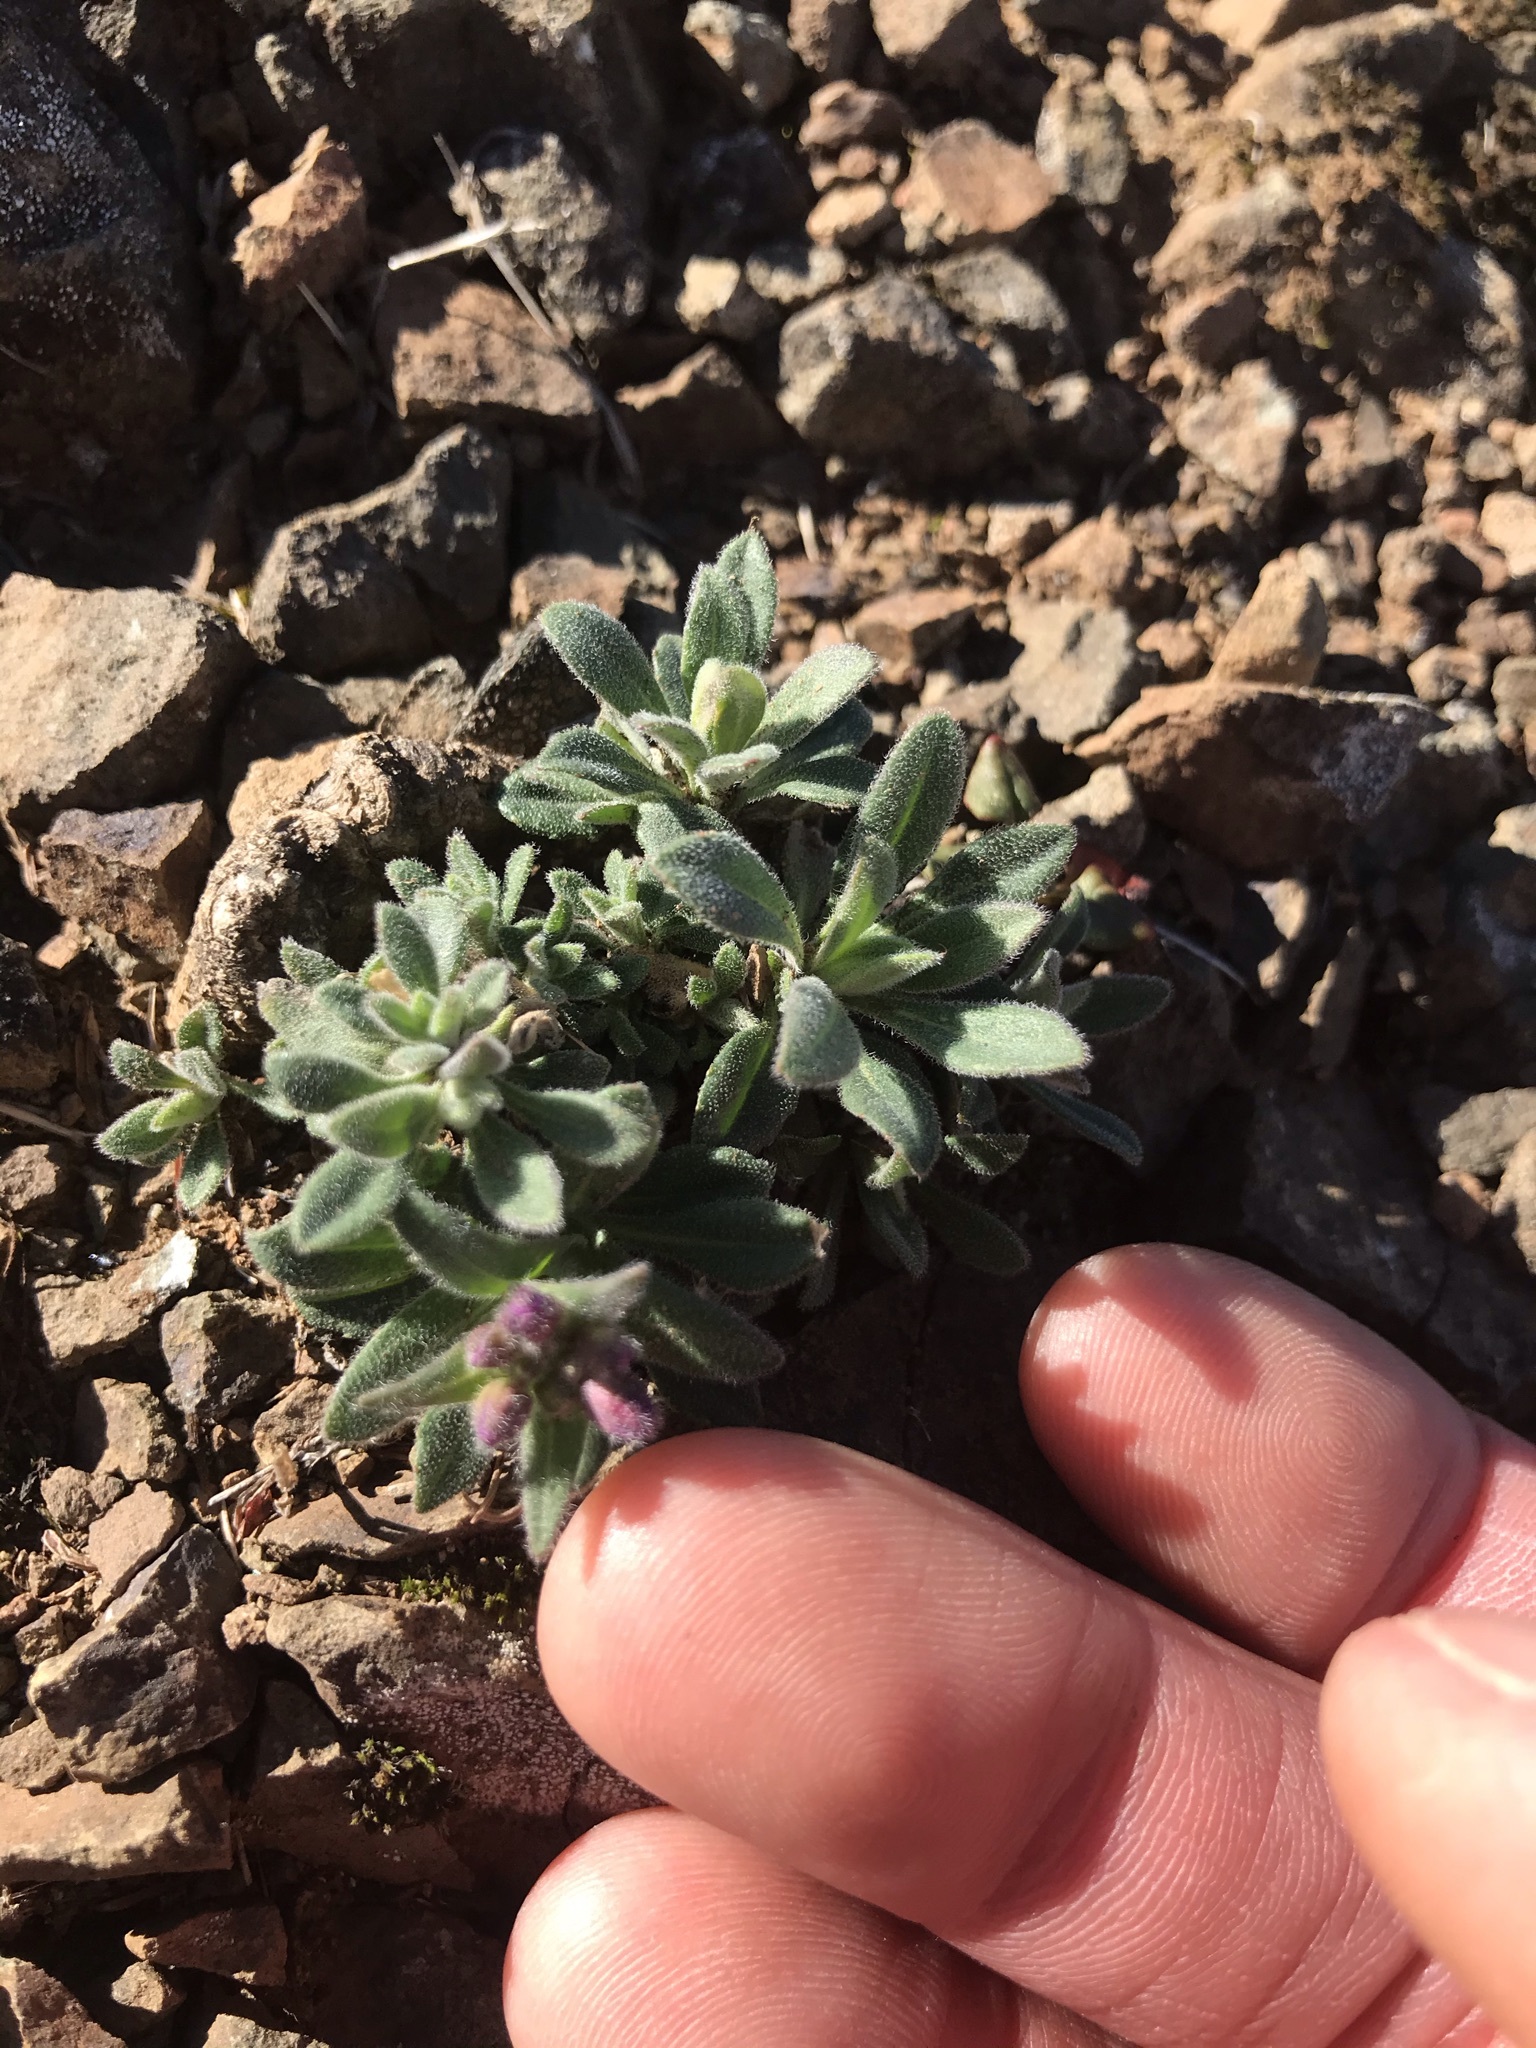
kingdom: Plantae
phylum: Tracheophyta
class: Magnoliopsida
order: Brassicales
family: Brassicaceae
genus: Boechera
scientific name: Boechera breweri
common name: Brewer's rockcress
